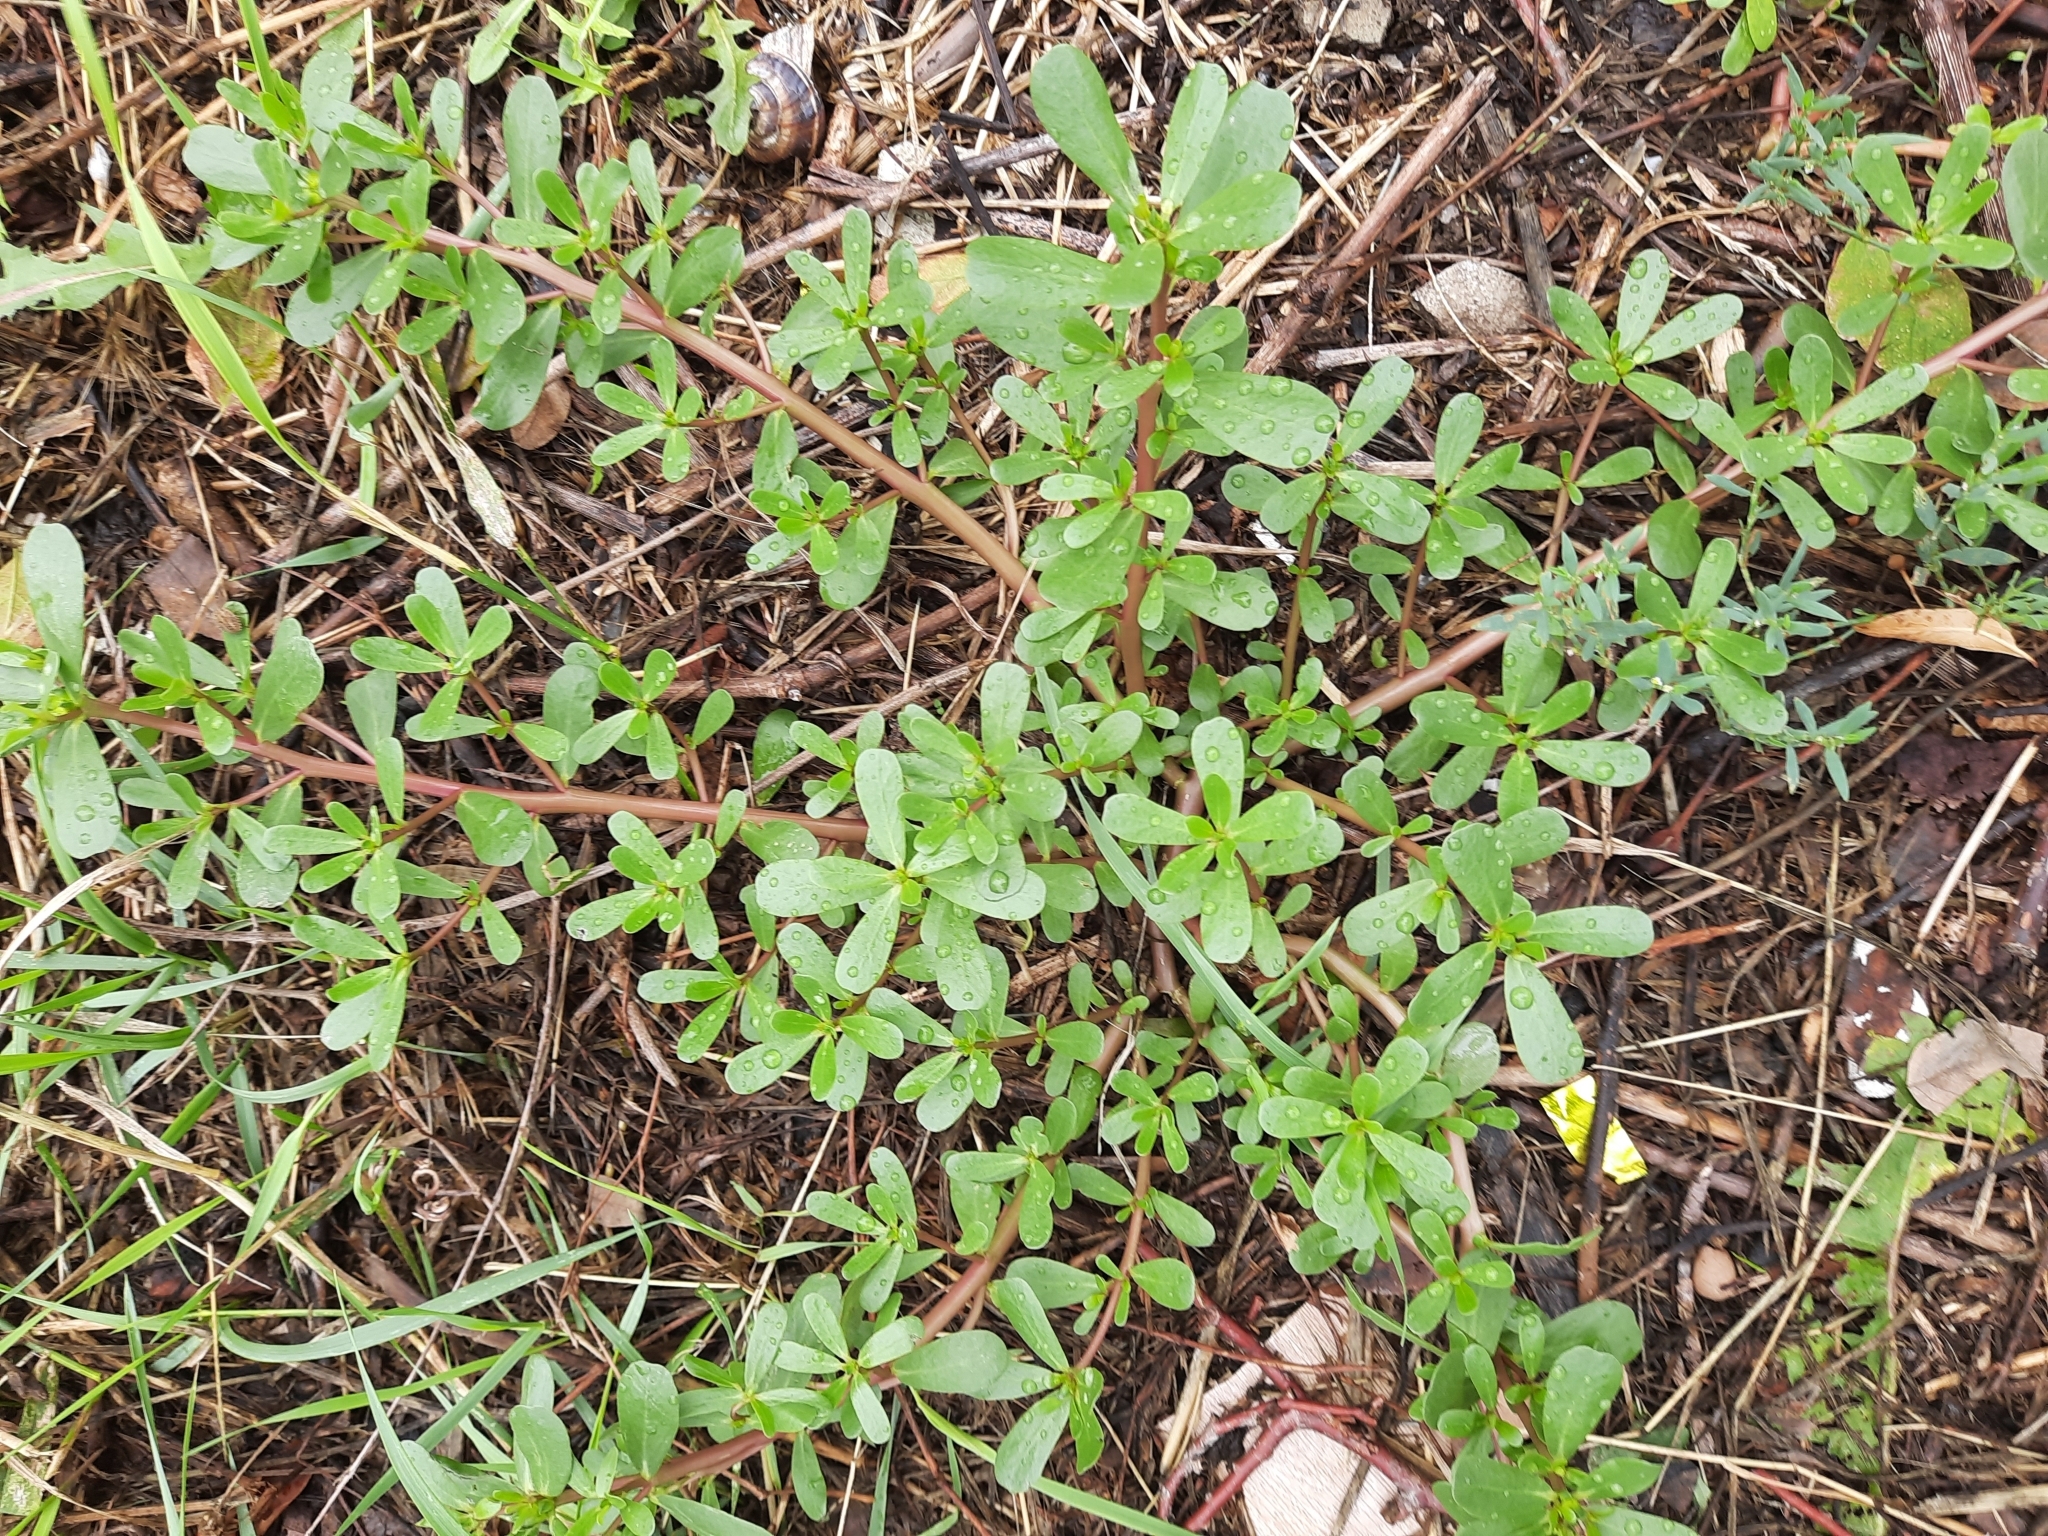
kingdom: Plantae
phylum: Tracheophyta
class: Magnoliopsida
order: Caryophyllales
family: Portulacaceae
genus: Portulaca
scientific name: Portulaca oleracea
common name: Common purslane
